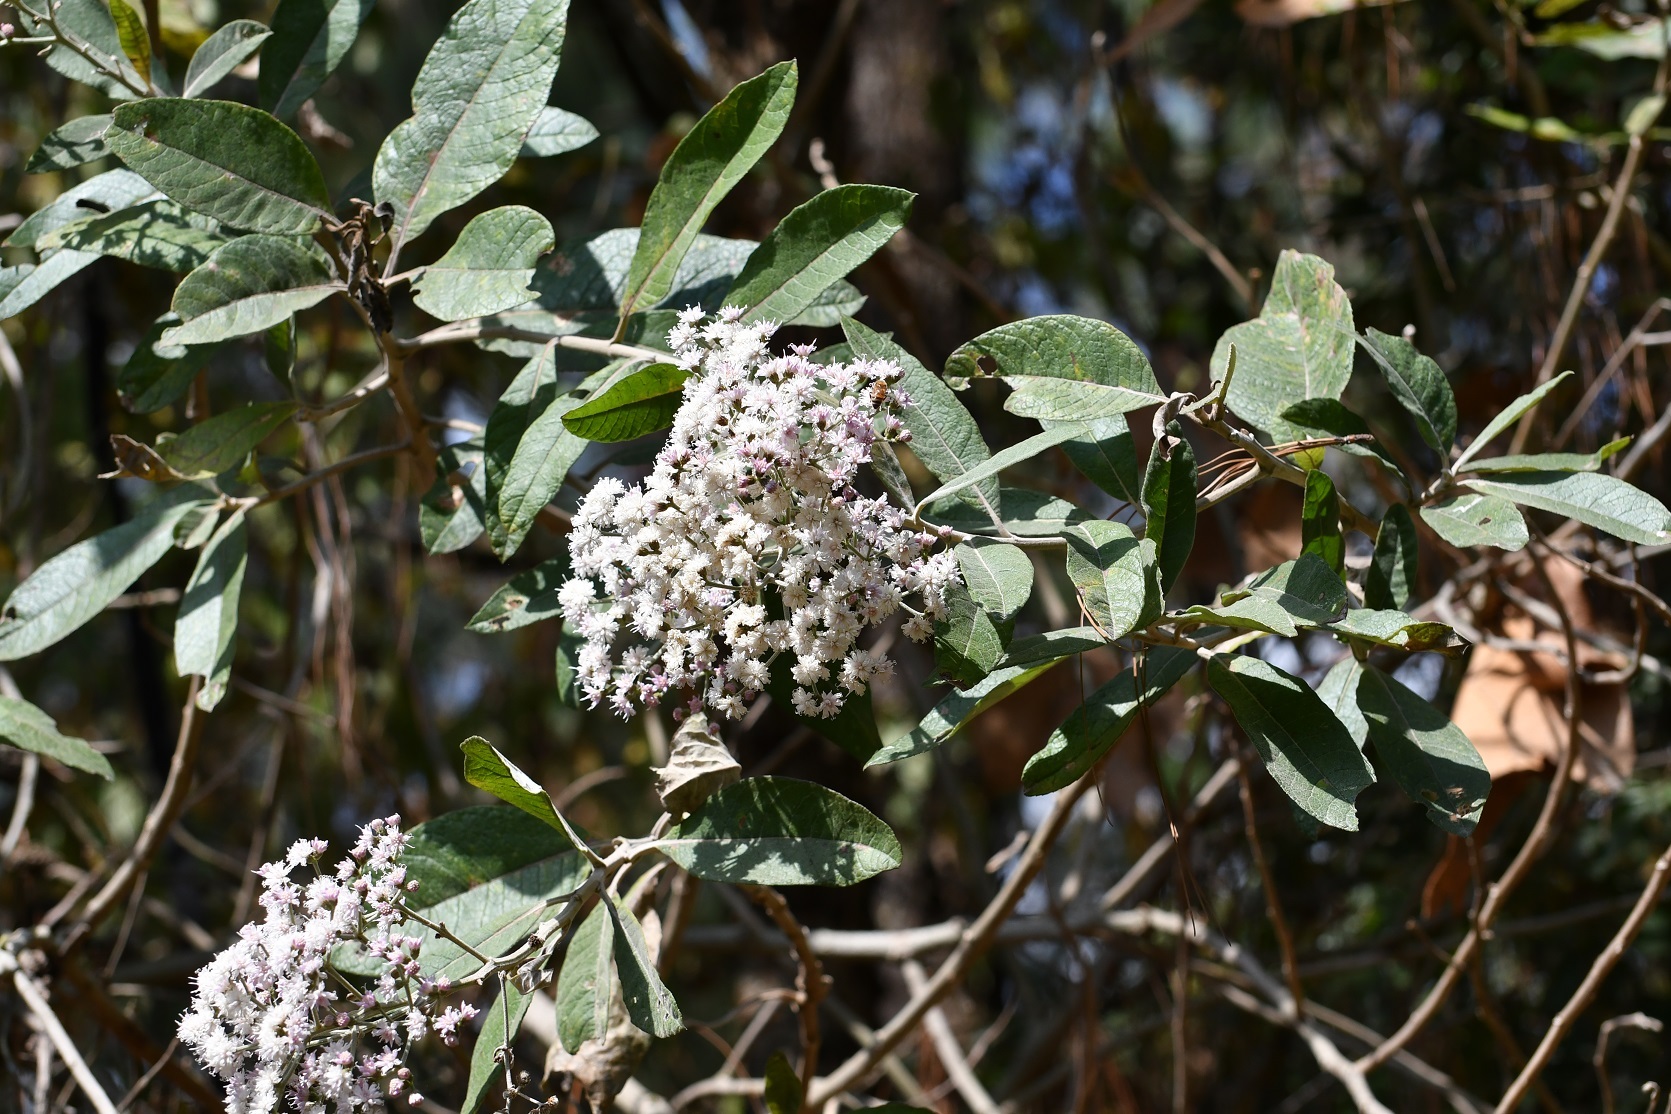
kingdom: Plantae
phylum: Tracheophyta
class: Magnoliopsida
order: Asterales
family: Asteraceae
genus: Vernonanthura
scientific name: Vernonanthura patens
